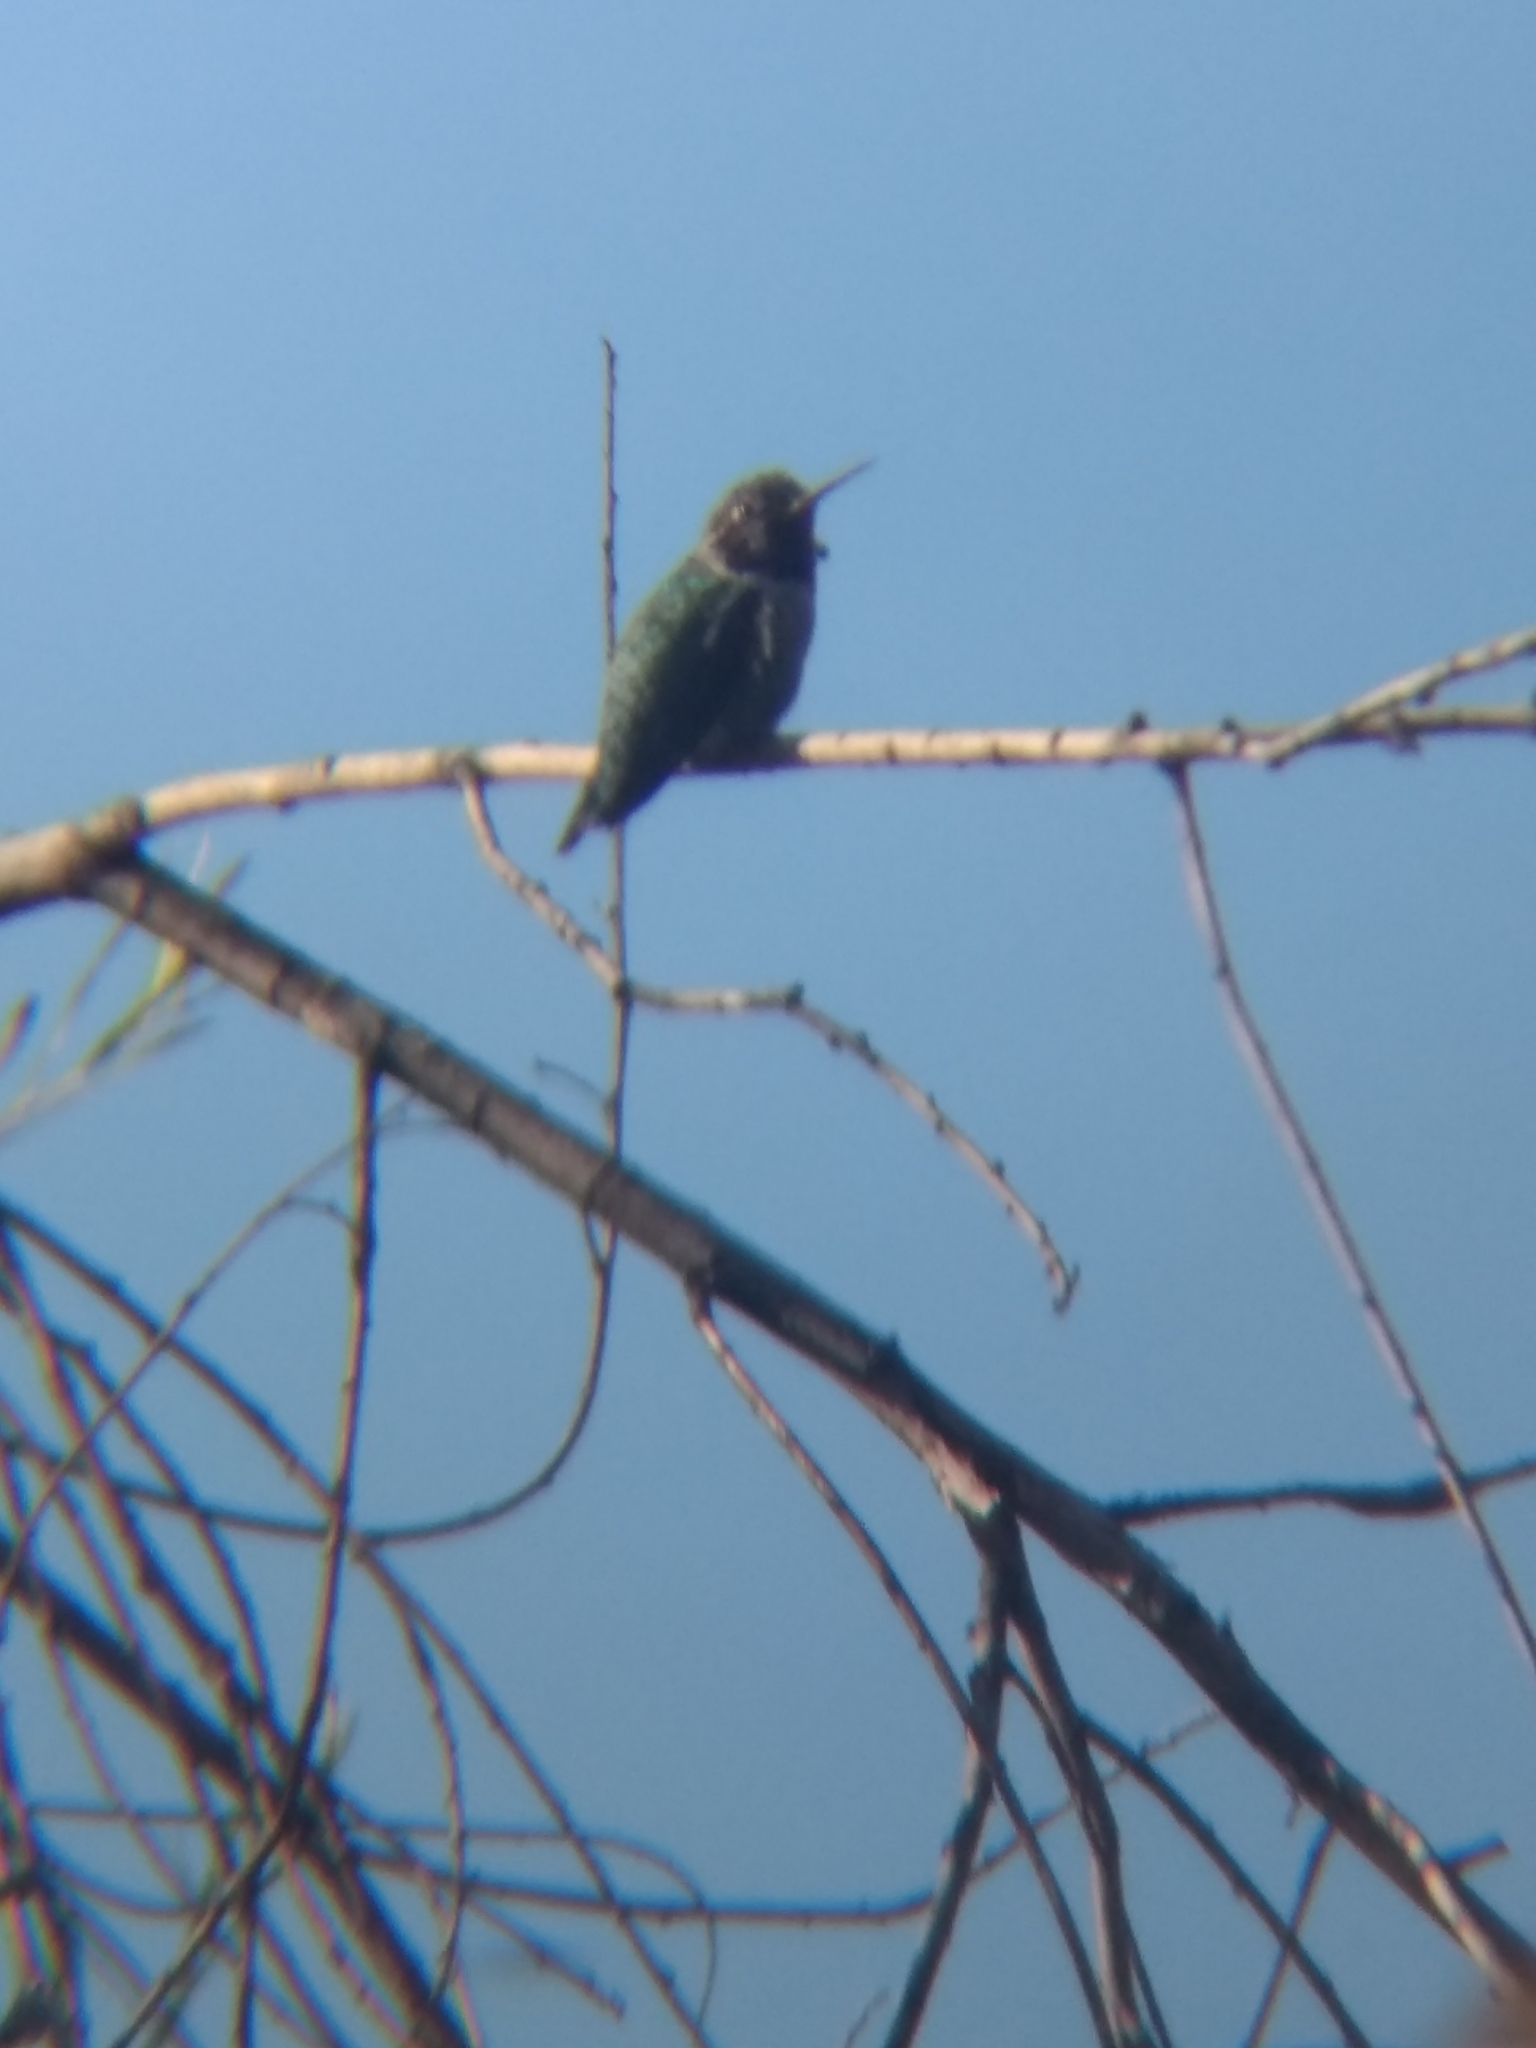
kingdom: Animalia
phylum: Chordata
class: Aves
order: Apodiformes
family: Trochilidae
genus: Calypte
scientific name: Calypte anna
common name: Anna's hummingbird
